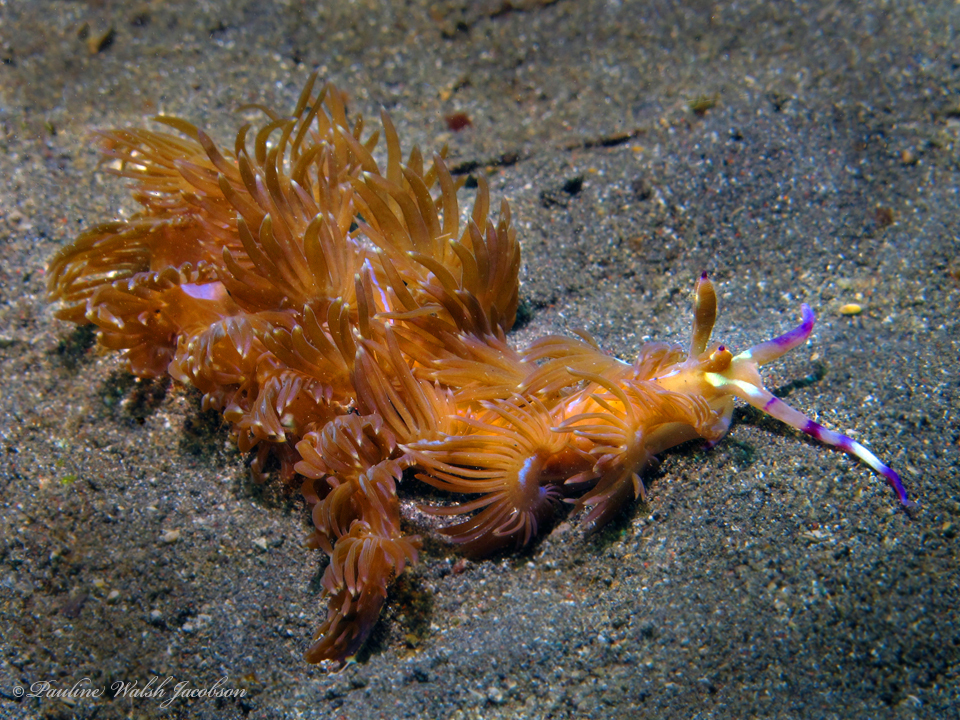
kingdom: Animalia
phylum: Mollusca
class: Gastropoda
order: Nudibranchia
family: Facelinidae
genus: Pteraeolidia
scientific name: Pteraeolidia semperi
